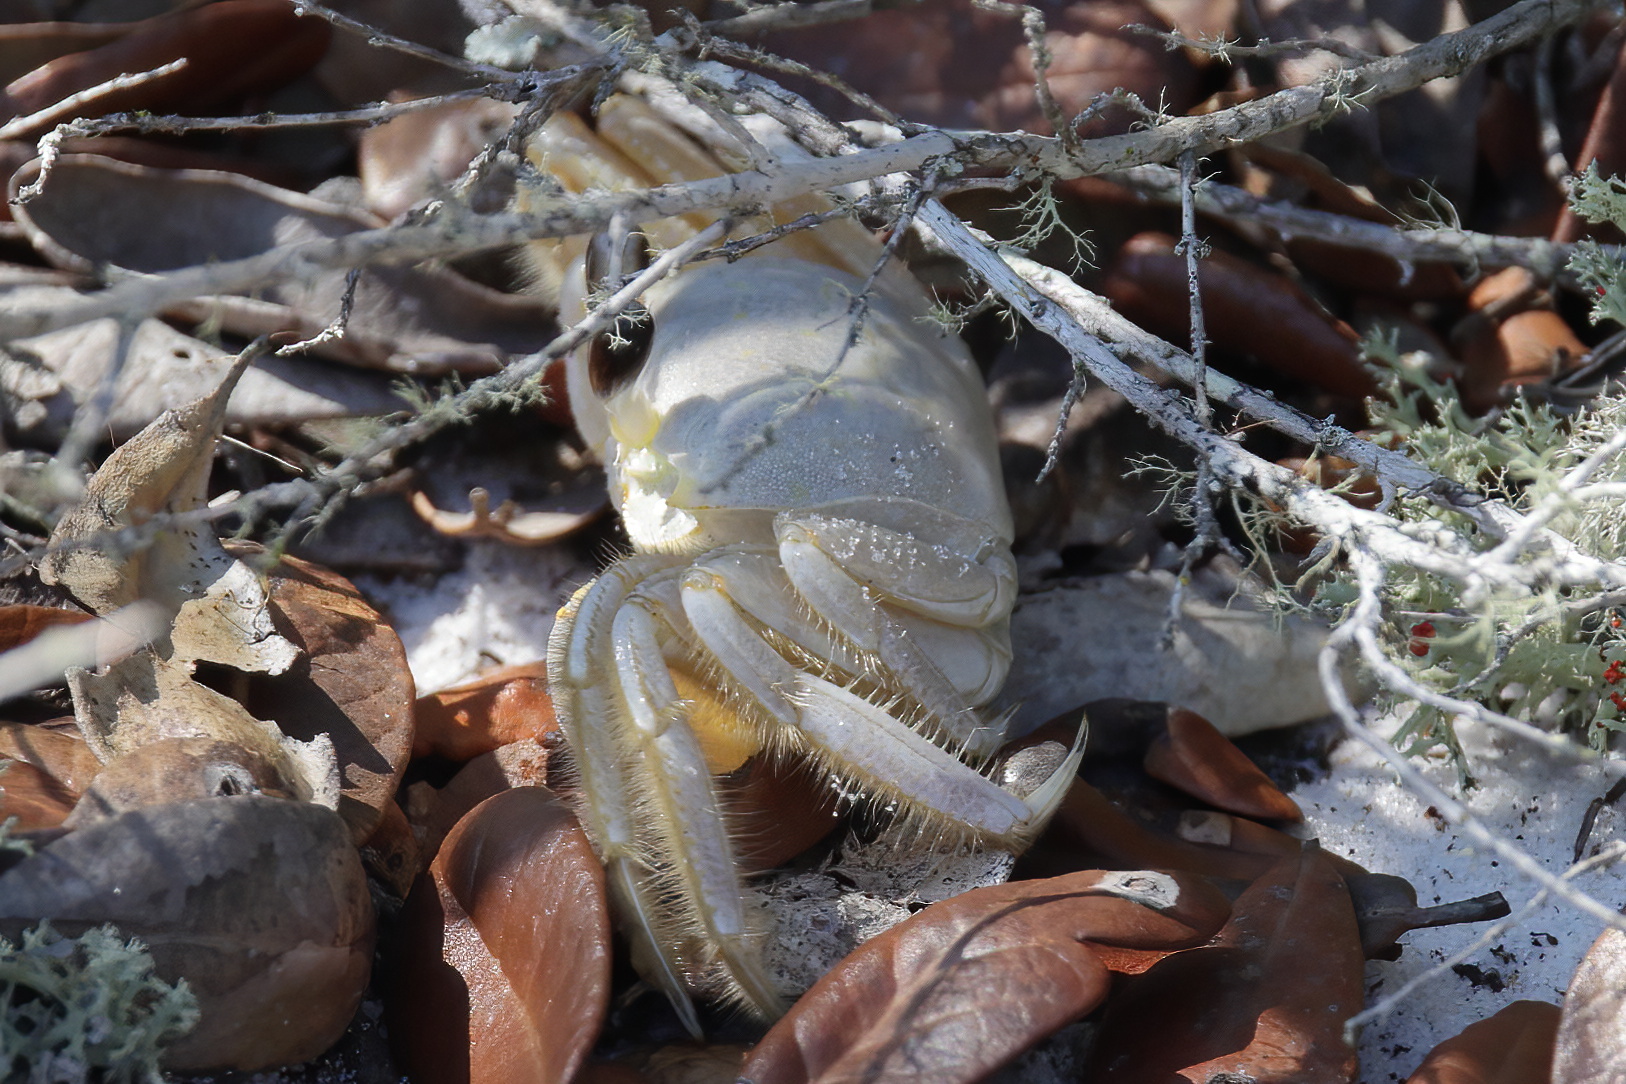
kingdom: Animalia
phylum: Arthropoda
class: Malacostraca
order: Decapoda
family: Ocypodidae
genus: Ocypode
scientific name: Ocypode quadrata
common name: Ghost crab
